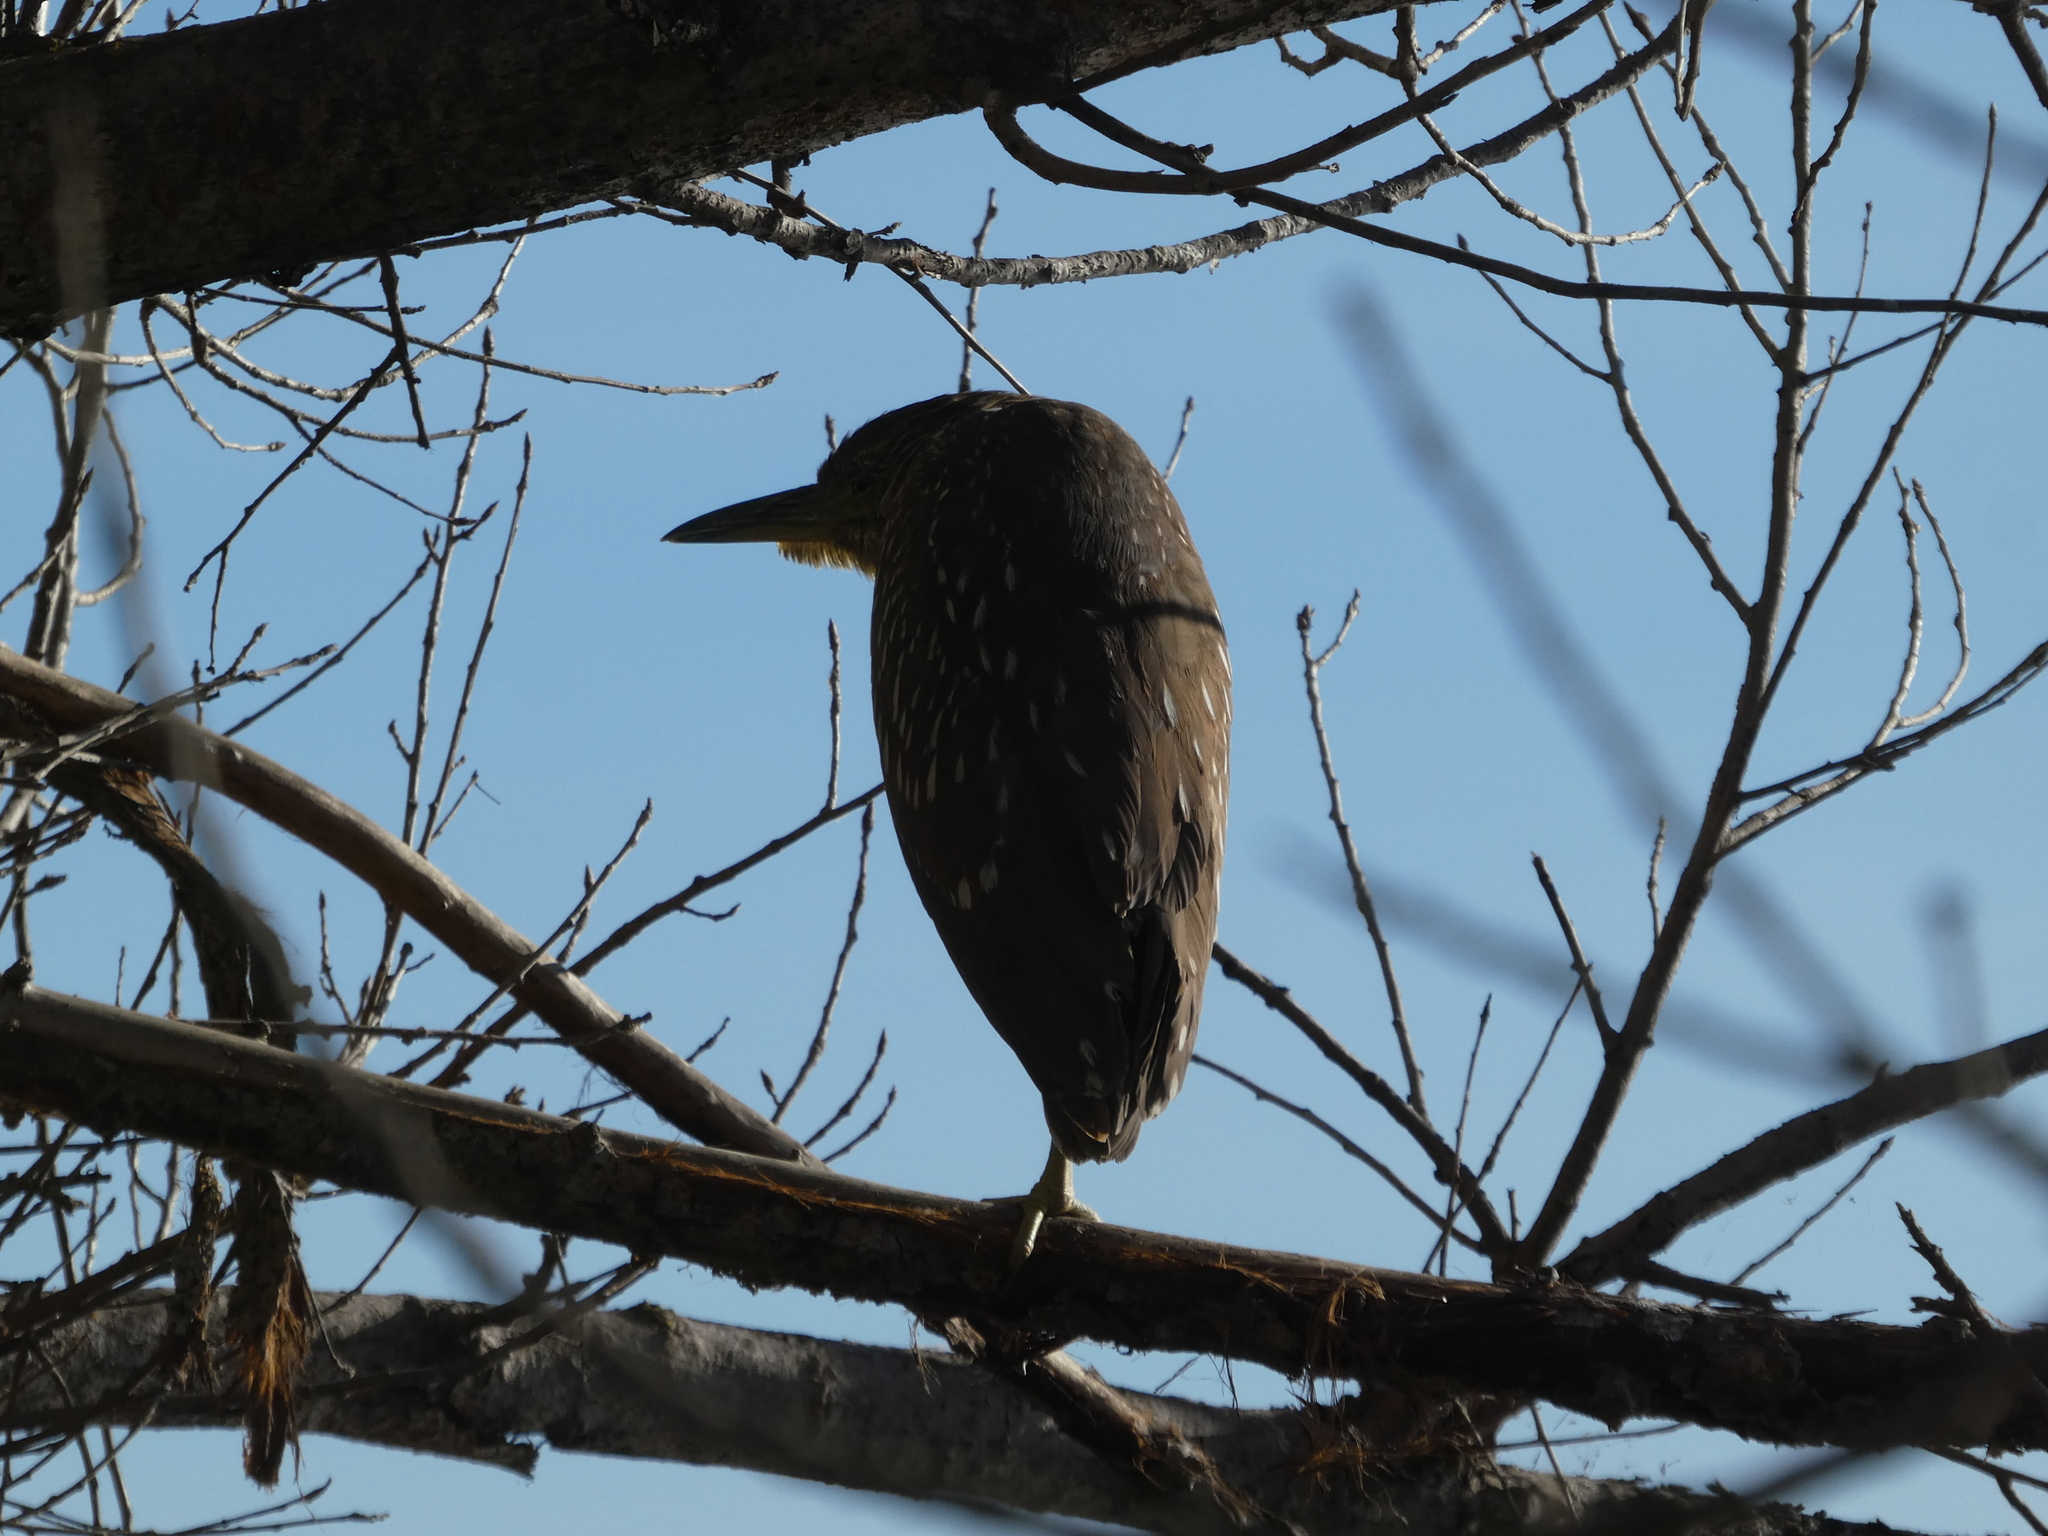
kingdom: Animalia
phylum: Chordata
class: Aves
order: Pelecaniformes
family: Ardeidae
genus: Nycticorax
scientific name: Nycticorax nycticorax
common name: Black-crowned night heron
